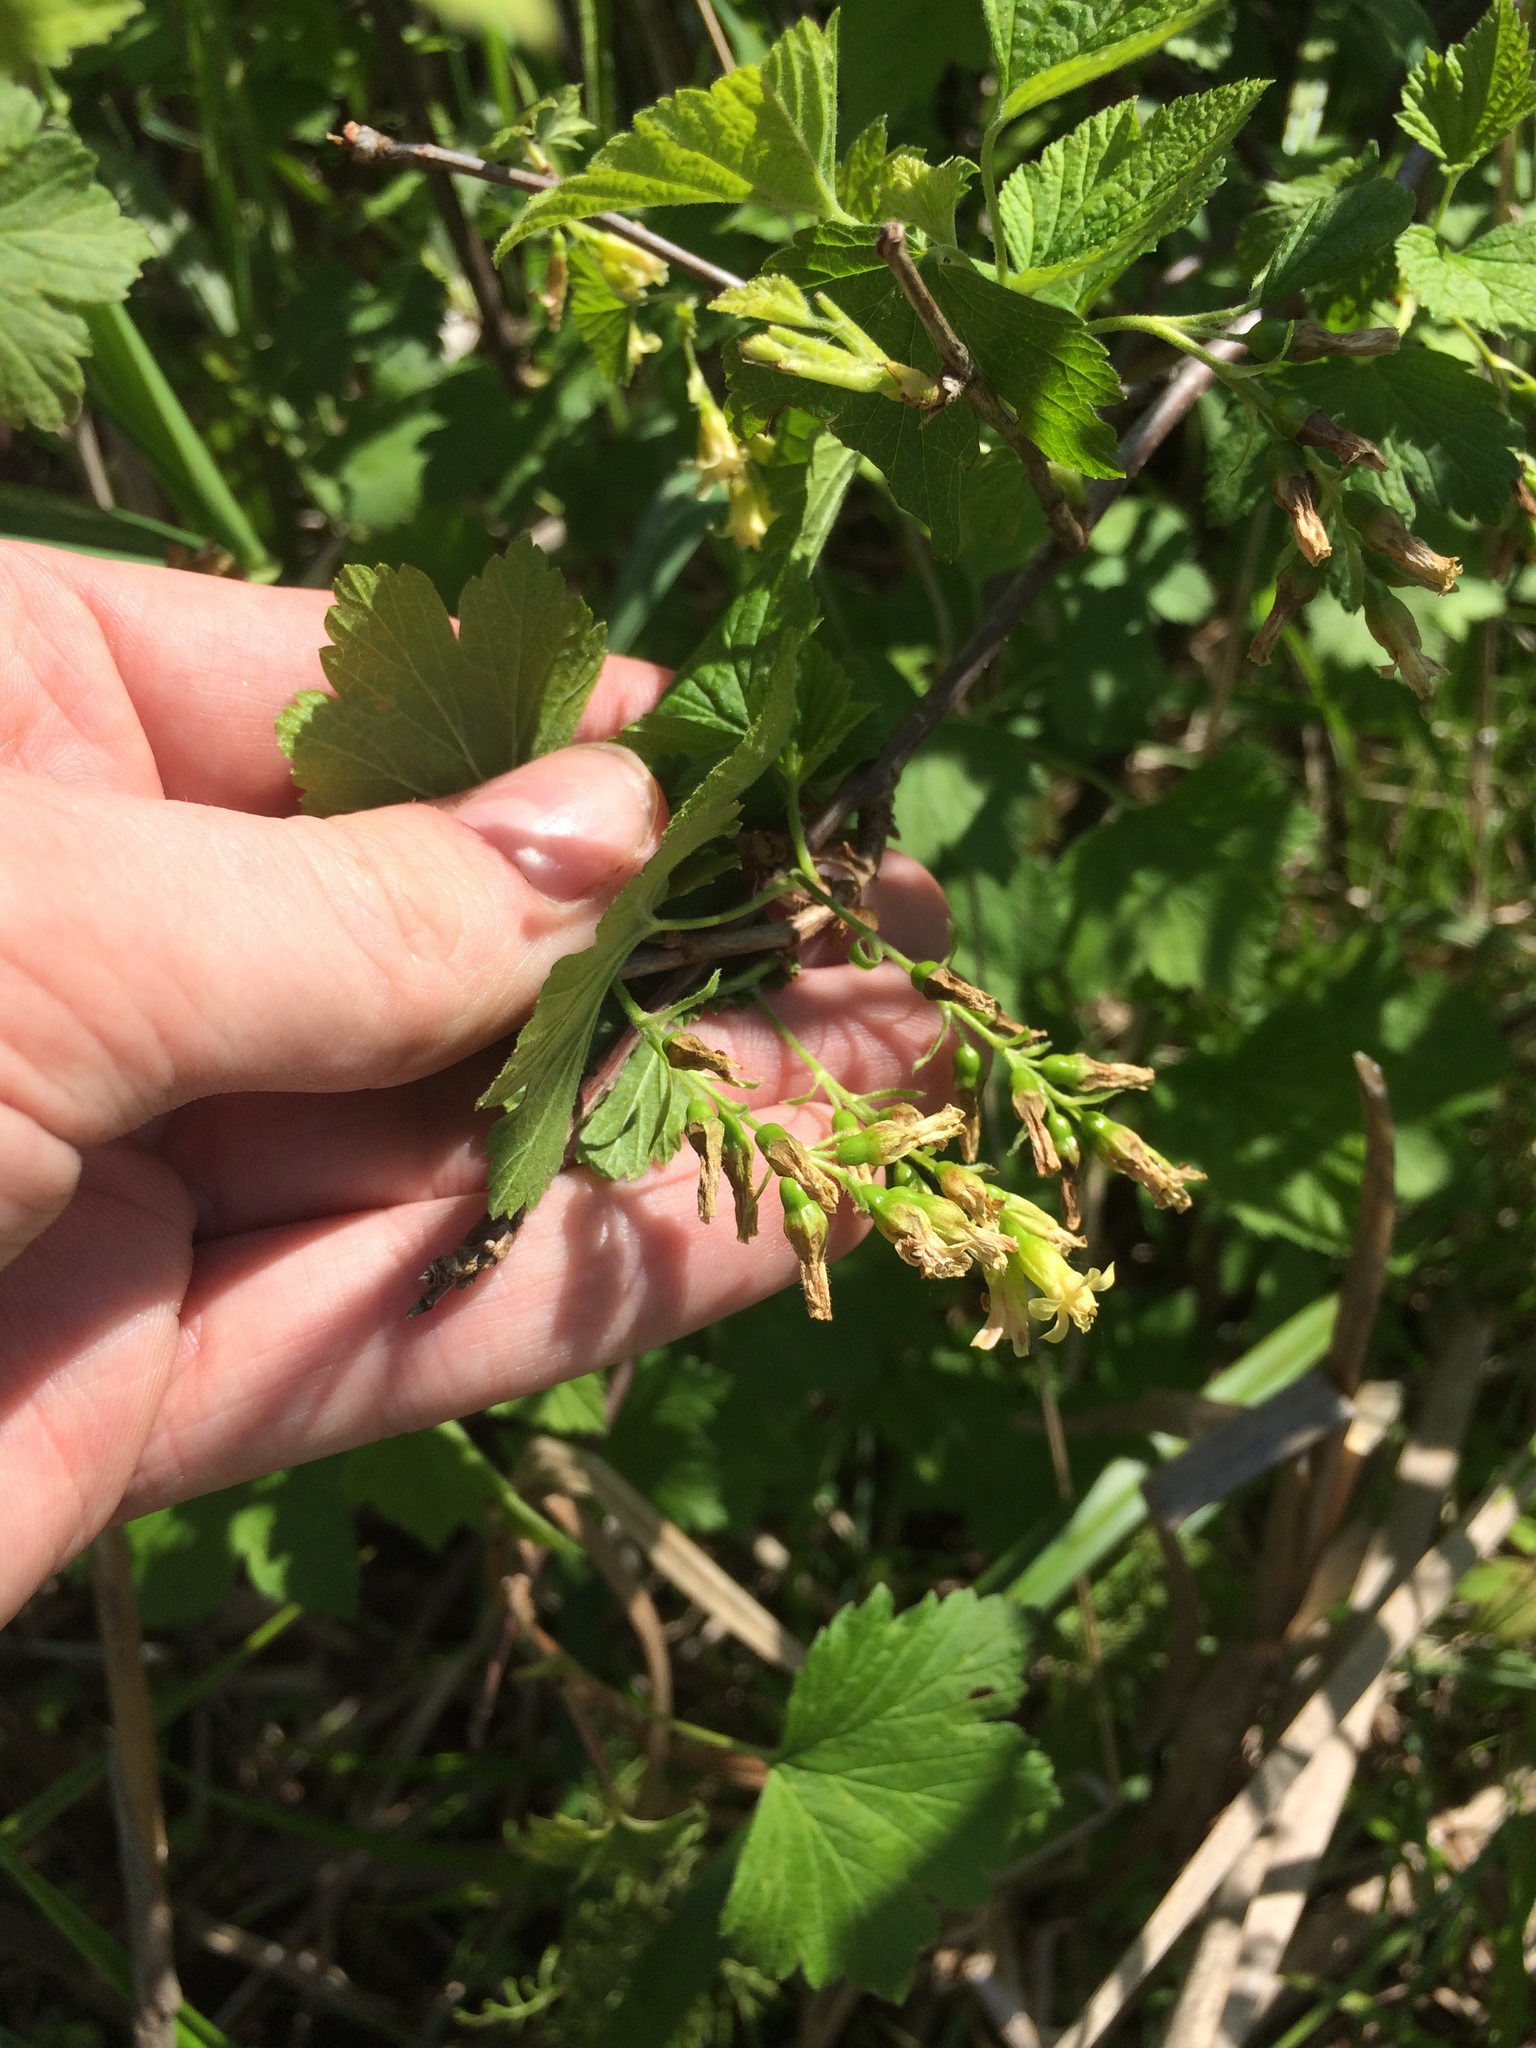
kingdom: Plantae
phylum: Tracheophyta
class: Magnoliopsida
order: Saxifragales
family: Grossulariaceae
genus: Ribes
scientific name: Ribes americanum
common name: American black currant
